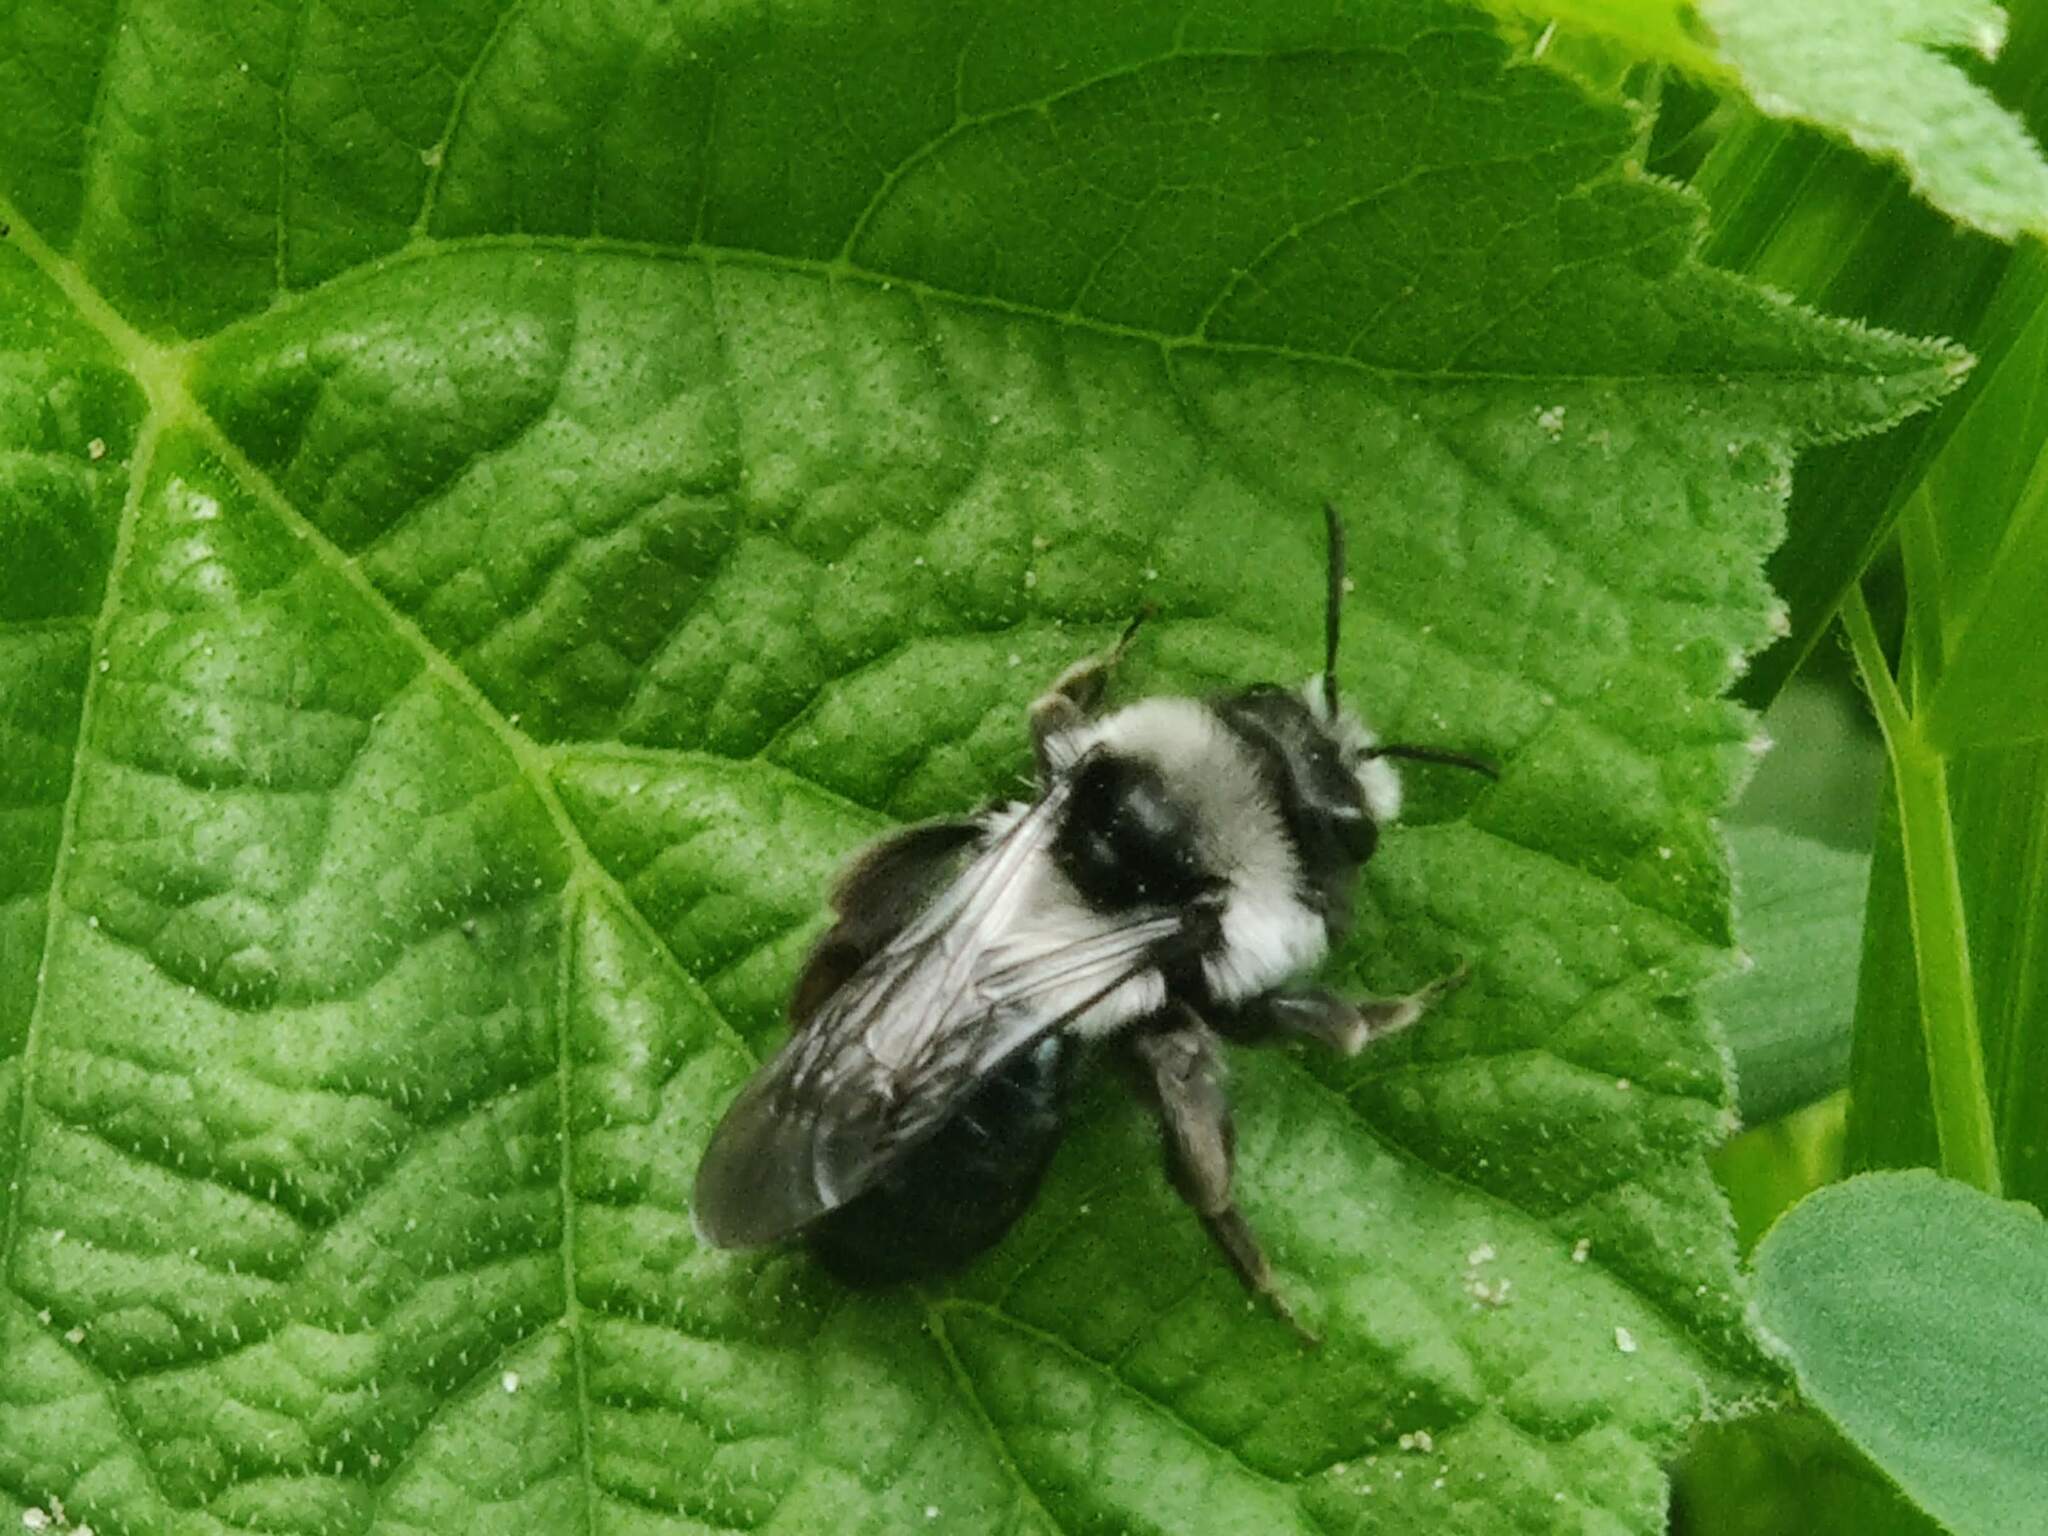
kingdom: Animalia
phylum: Arthropoda
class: Insecta
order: Hymenoptera
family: Andrenidae
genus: Andrena
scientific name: Andrena cineraria
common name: Ashy mining bee
